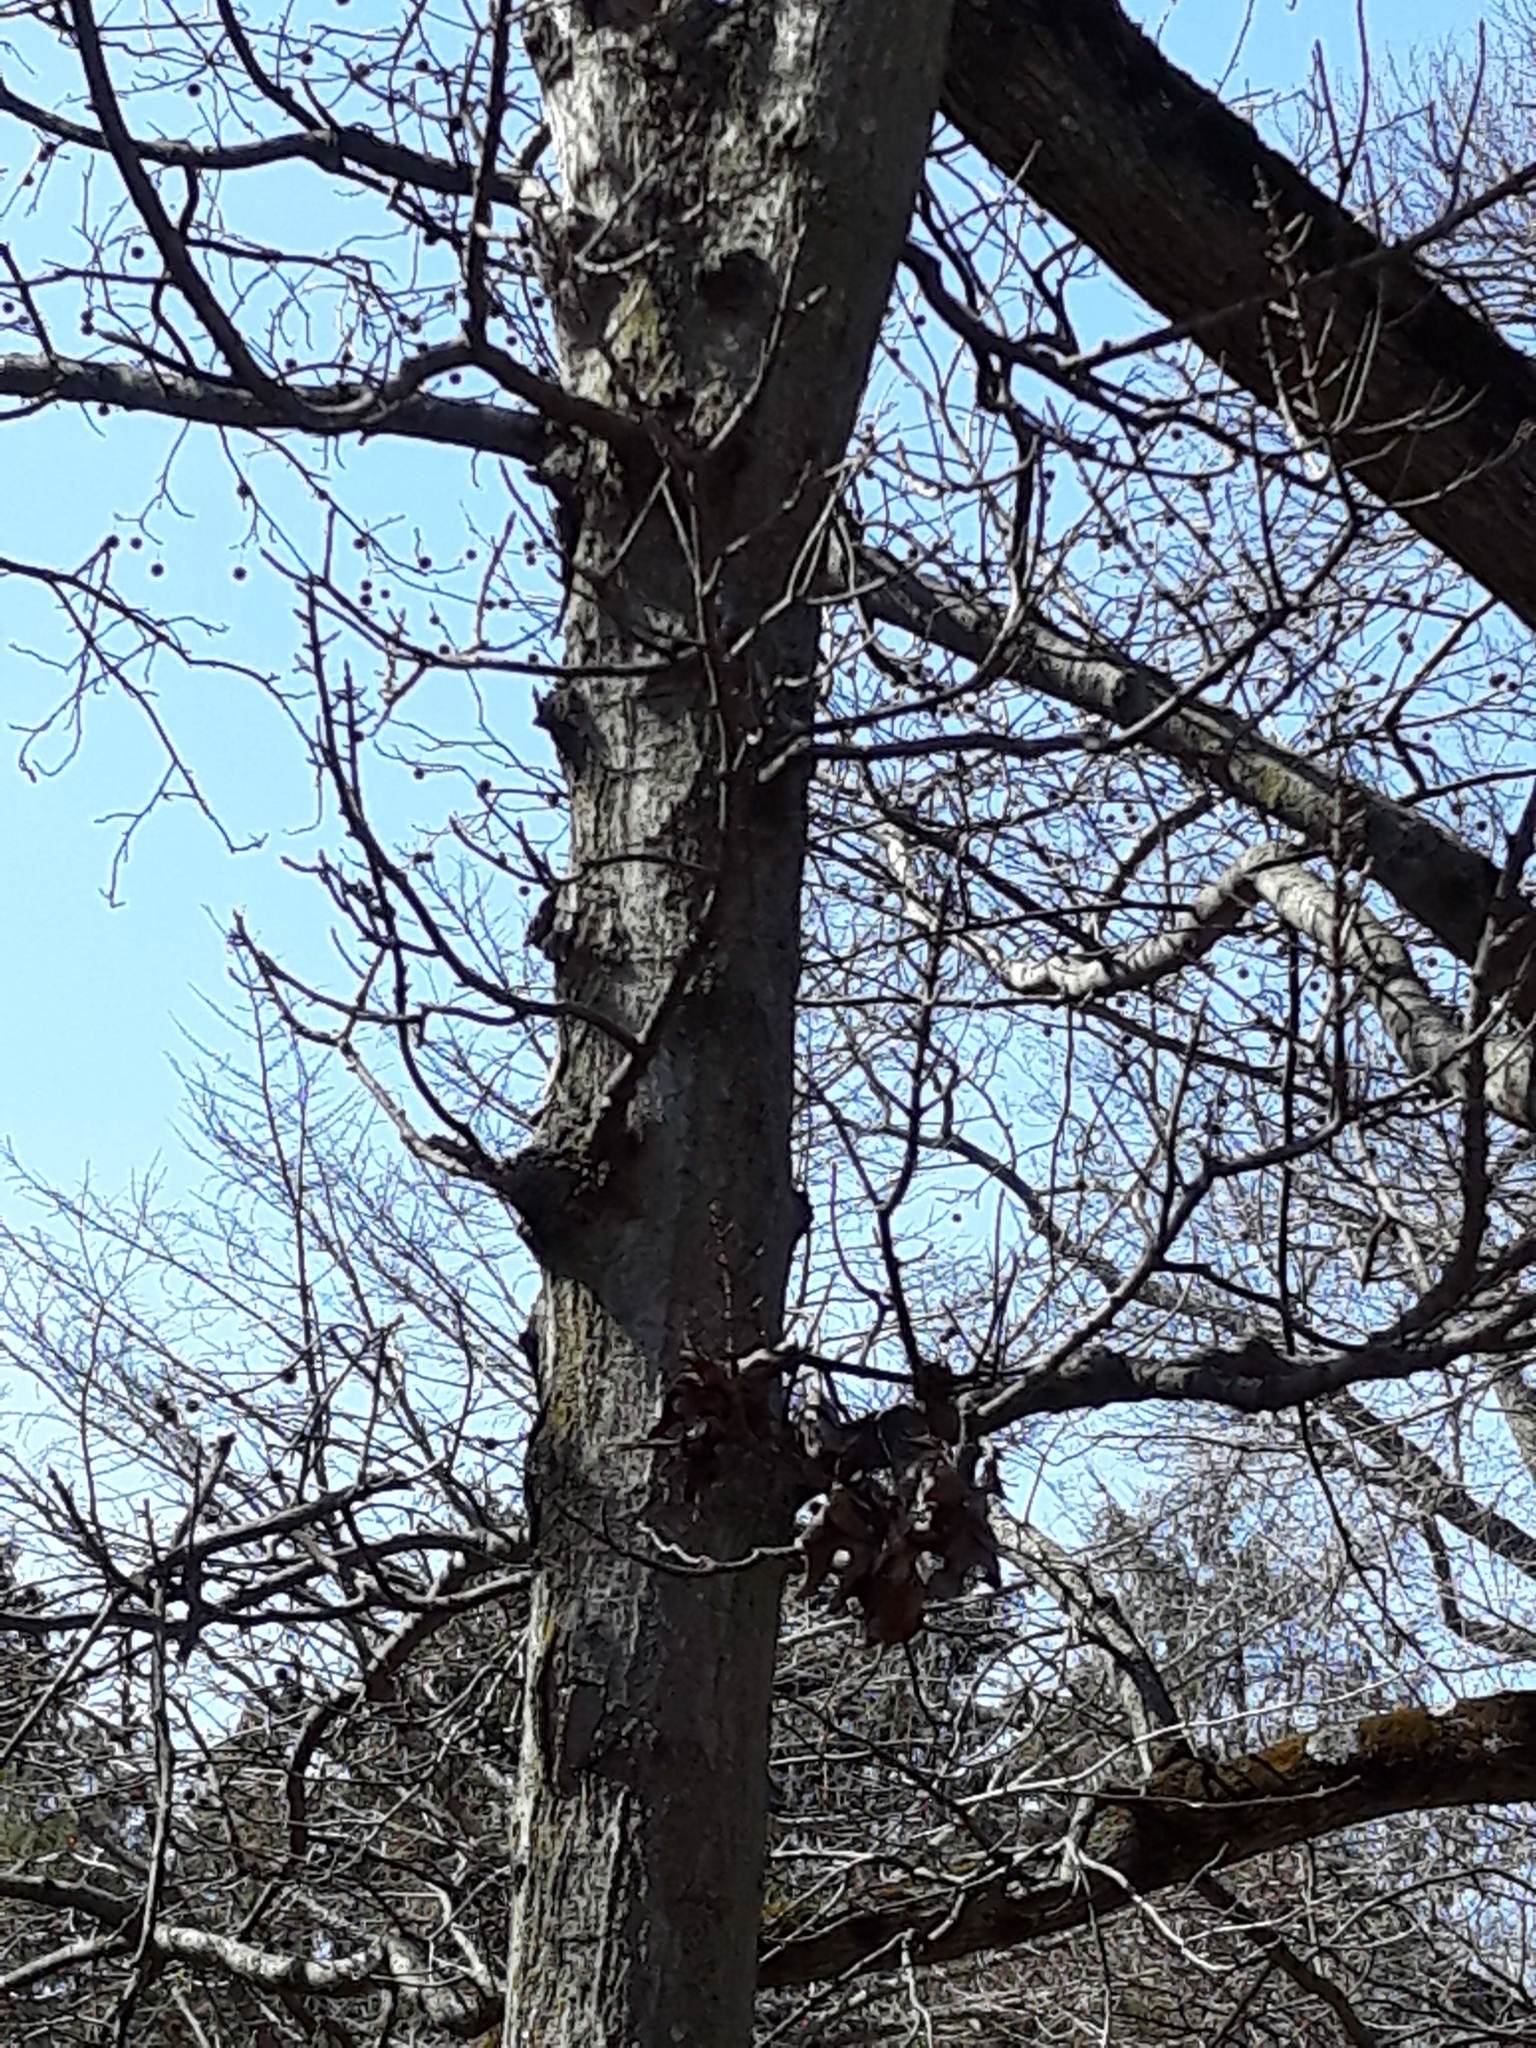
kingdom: Plantae
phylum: Tracheophyta
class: Magnoliopsida
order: Saxifragales
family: Altingiaceae
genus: Liquidambar
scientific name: Liquidambar styraciflua
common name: Sweet gum
